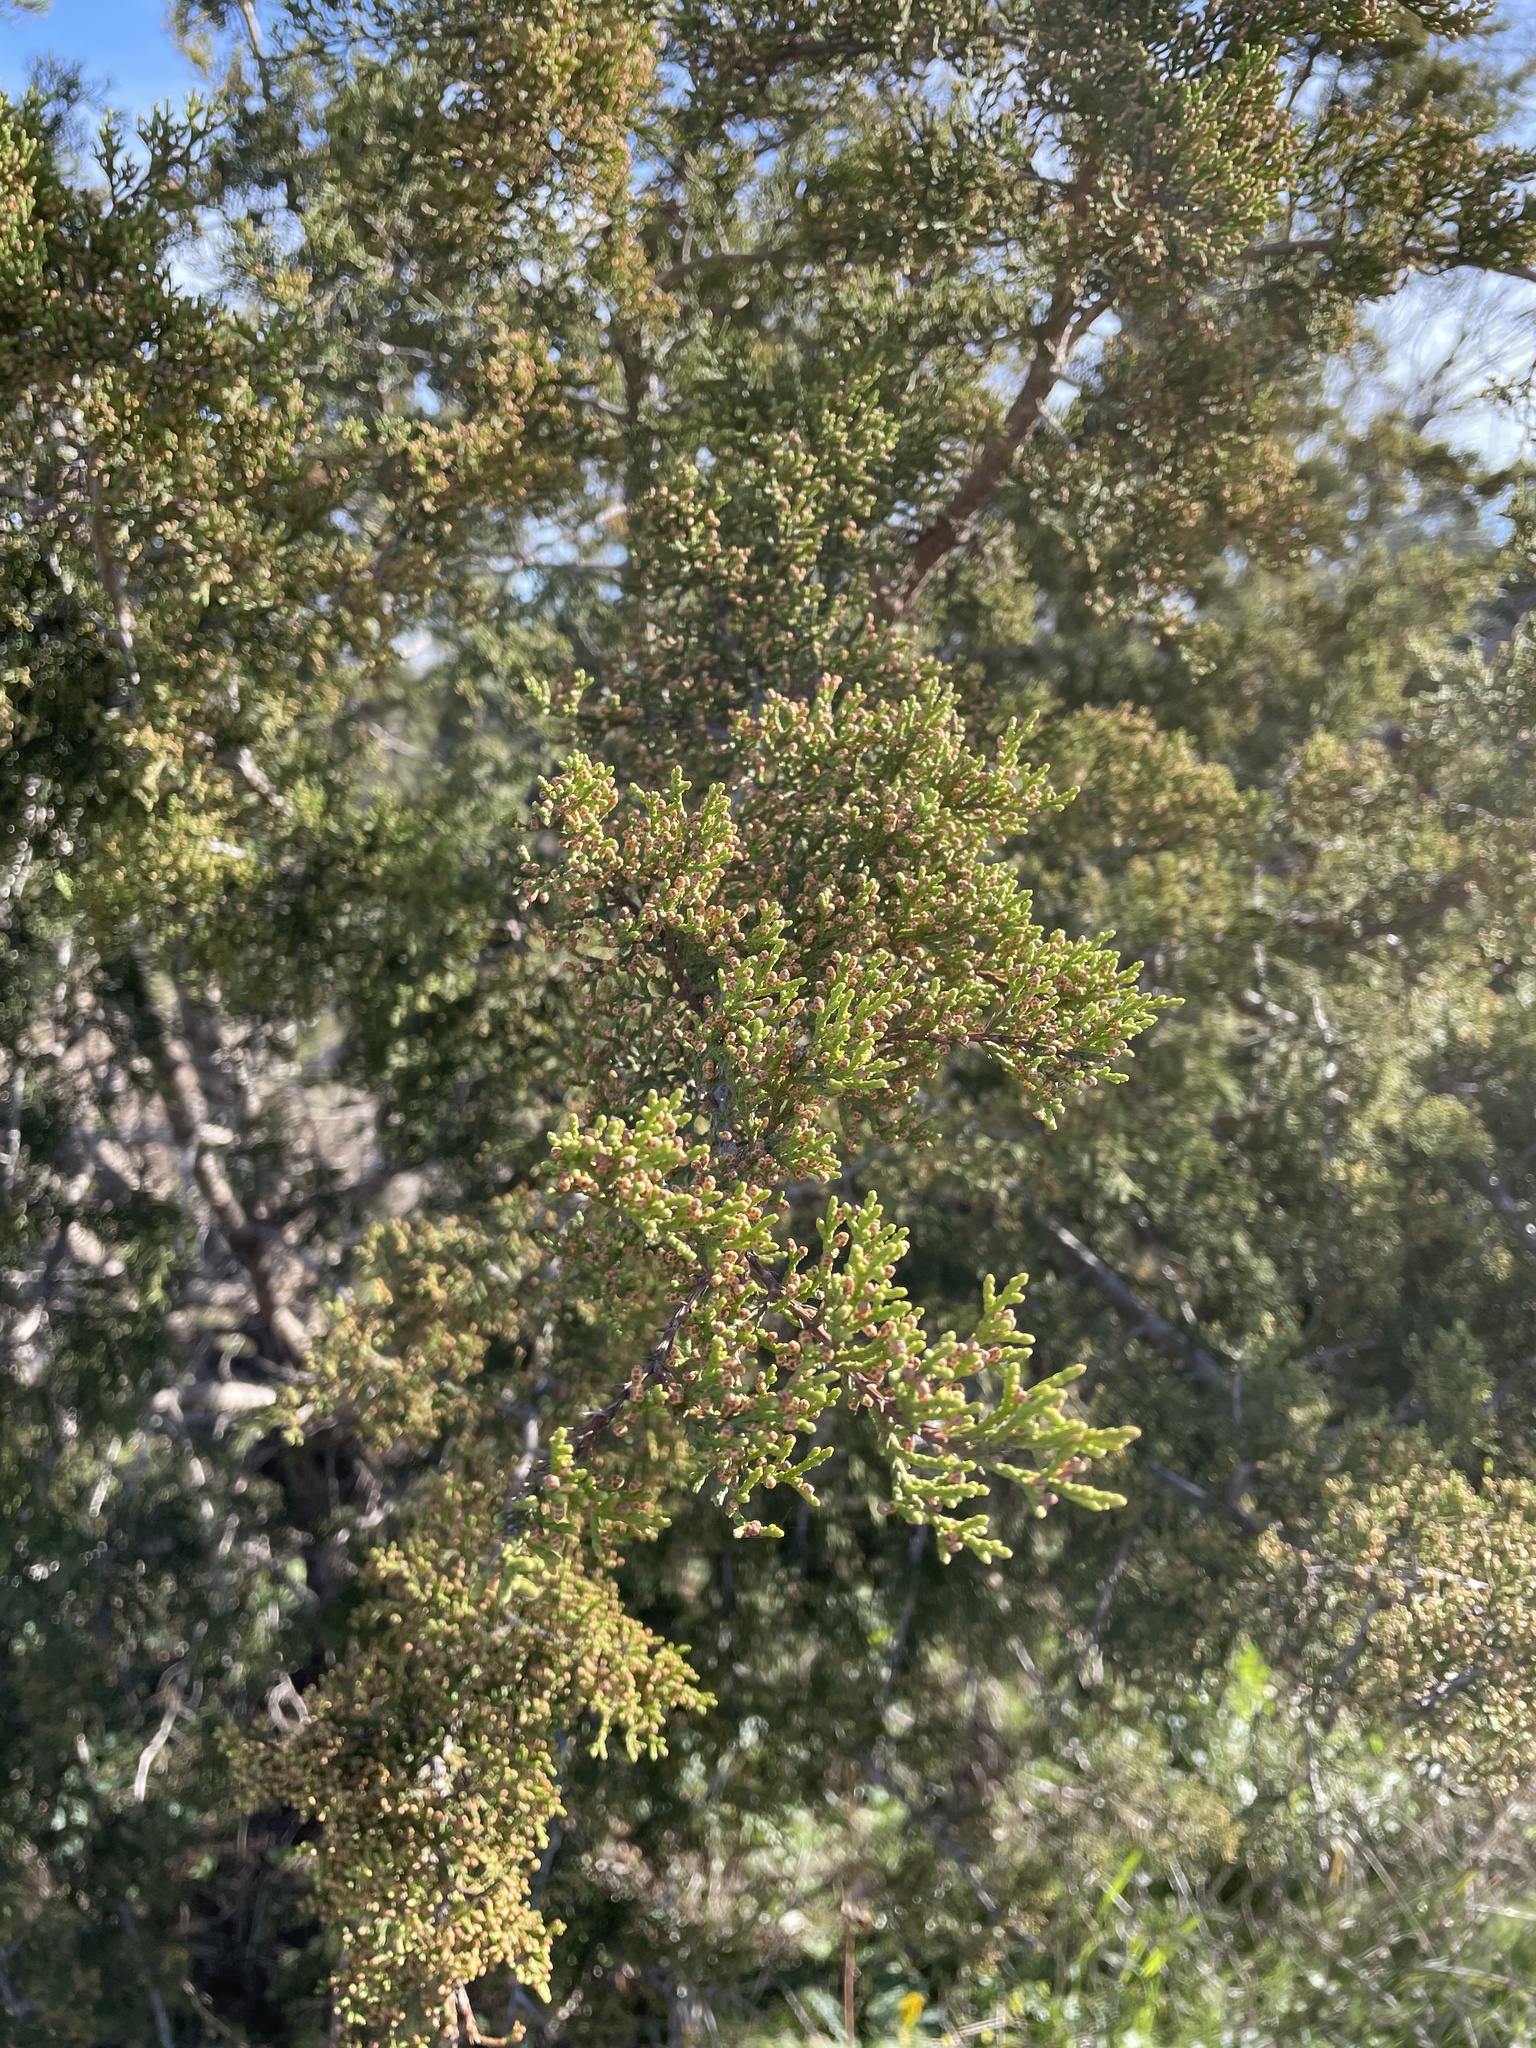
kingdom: Plantae
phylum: Tracheophyta
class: Pinopsida
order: Pinales
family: Cupressaceae
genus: Juniperus
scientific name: Juniperus ashei
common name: Mexican juniper
